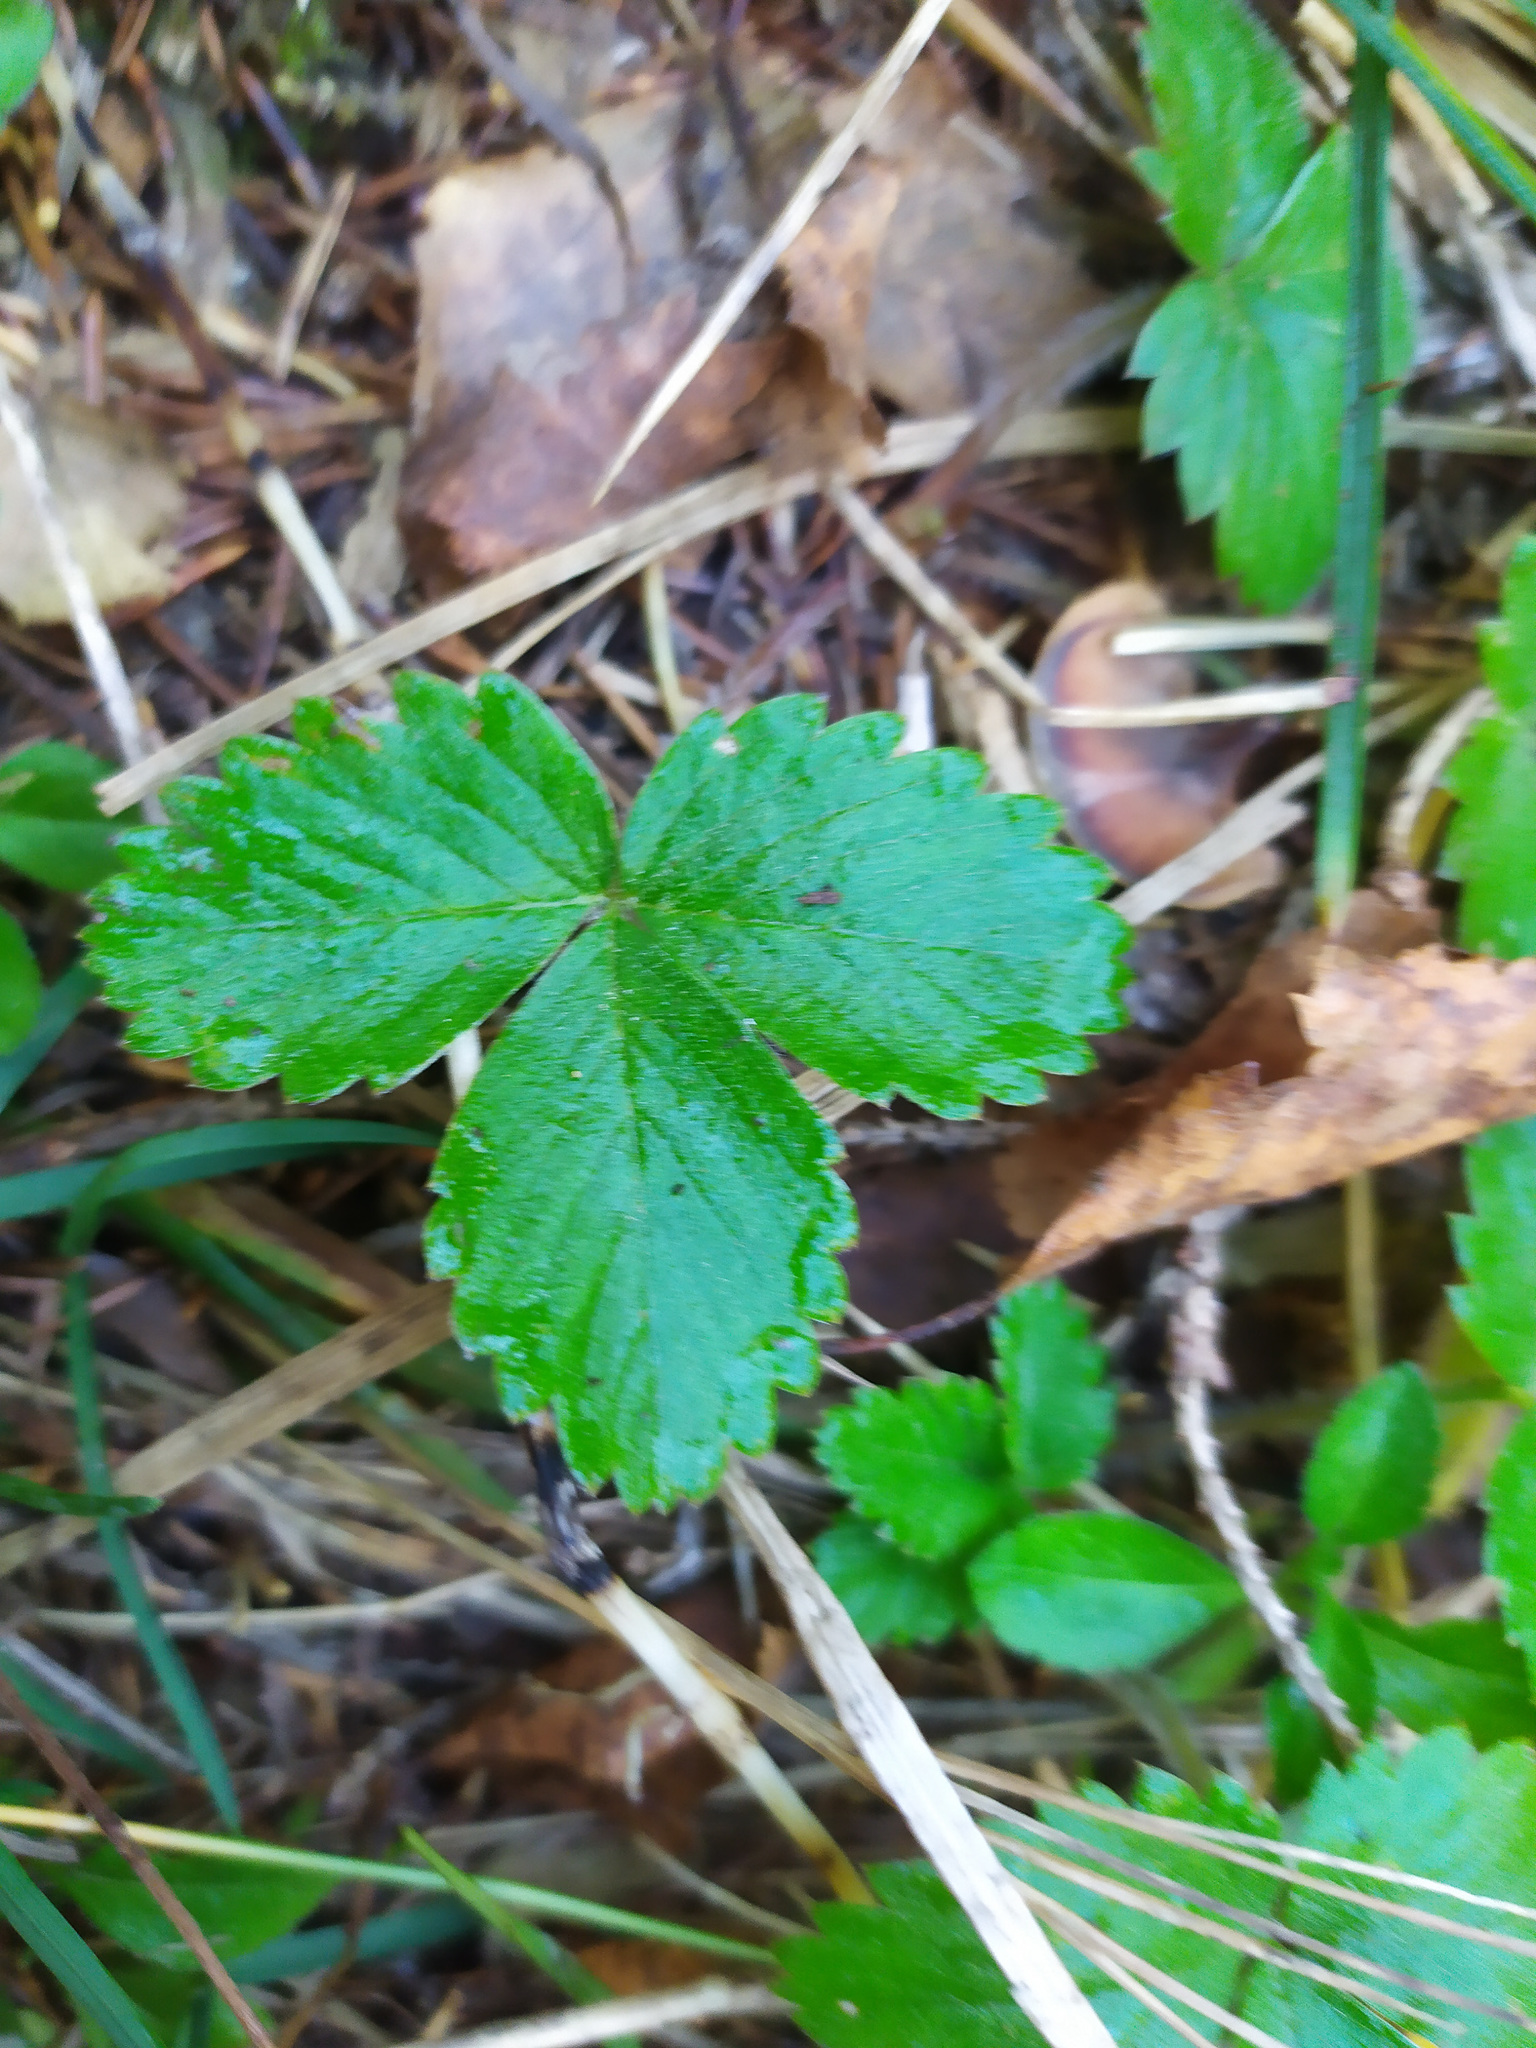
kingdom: Plantae
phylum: Tracheophyta
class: Magnoliopsida
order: Rosales
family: Rosaceae
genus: Fragaria
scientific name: Fragaria vesca
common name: Wild strawberry
